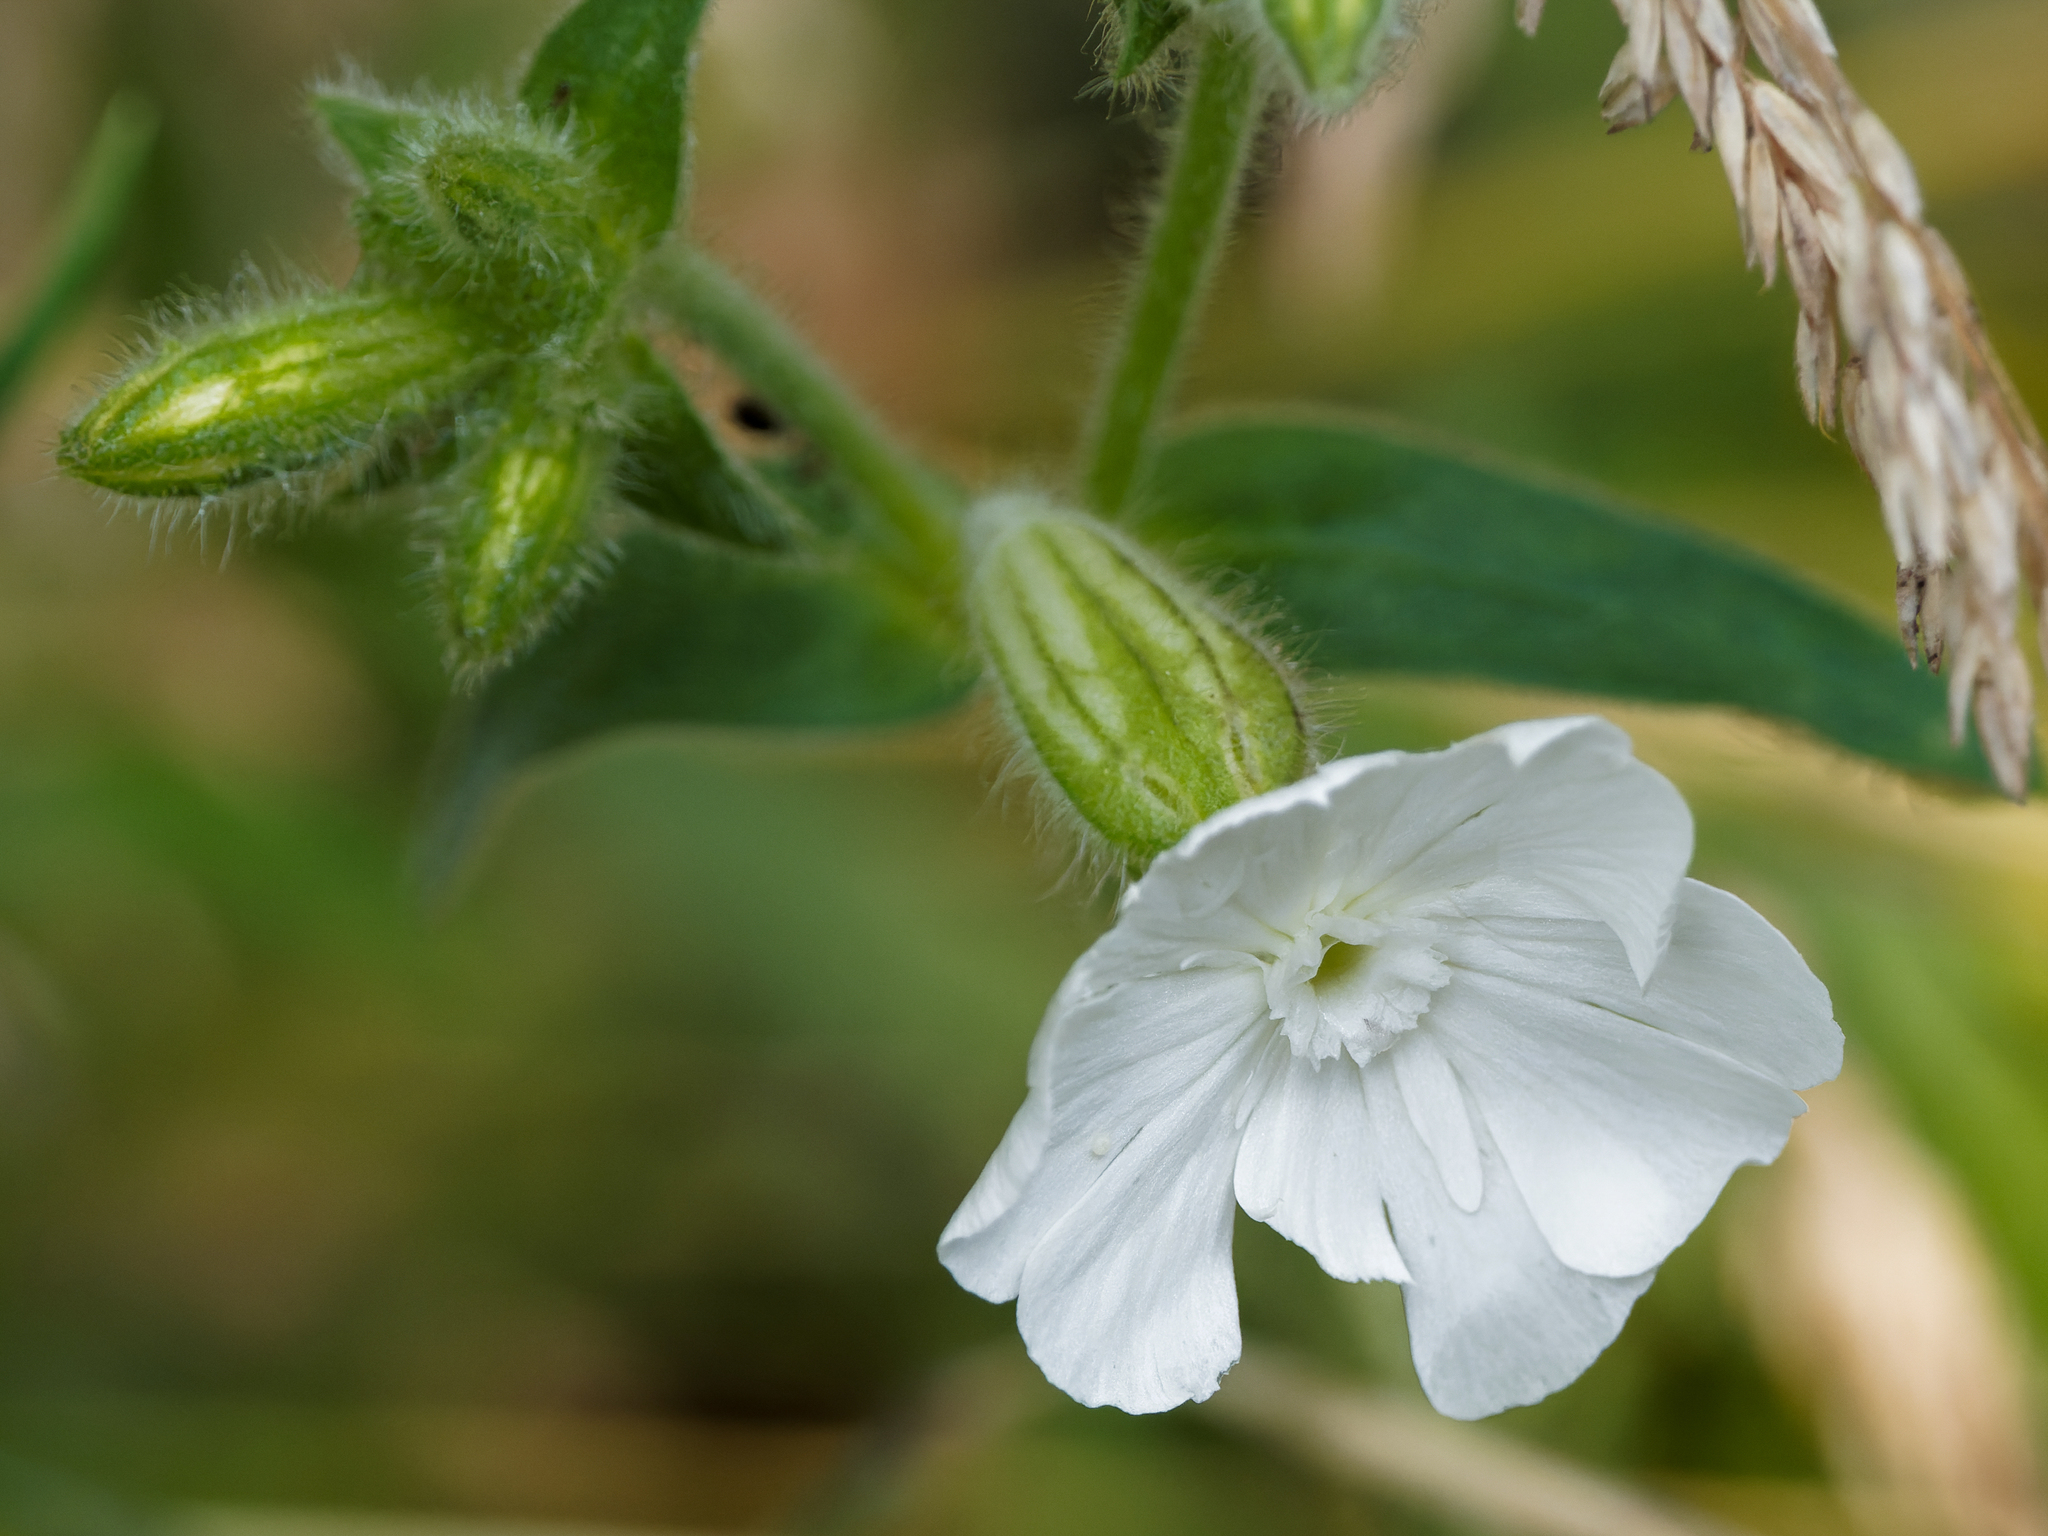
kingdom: Plantae
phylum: Tracheophyta
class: Magnoliopsida
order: Caryophyllales
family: Caryophyllaceae
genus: Silene
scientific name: Silene latifolia
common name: White campion
